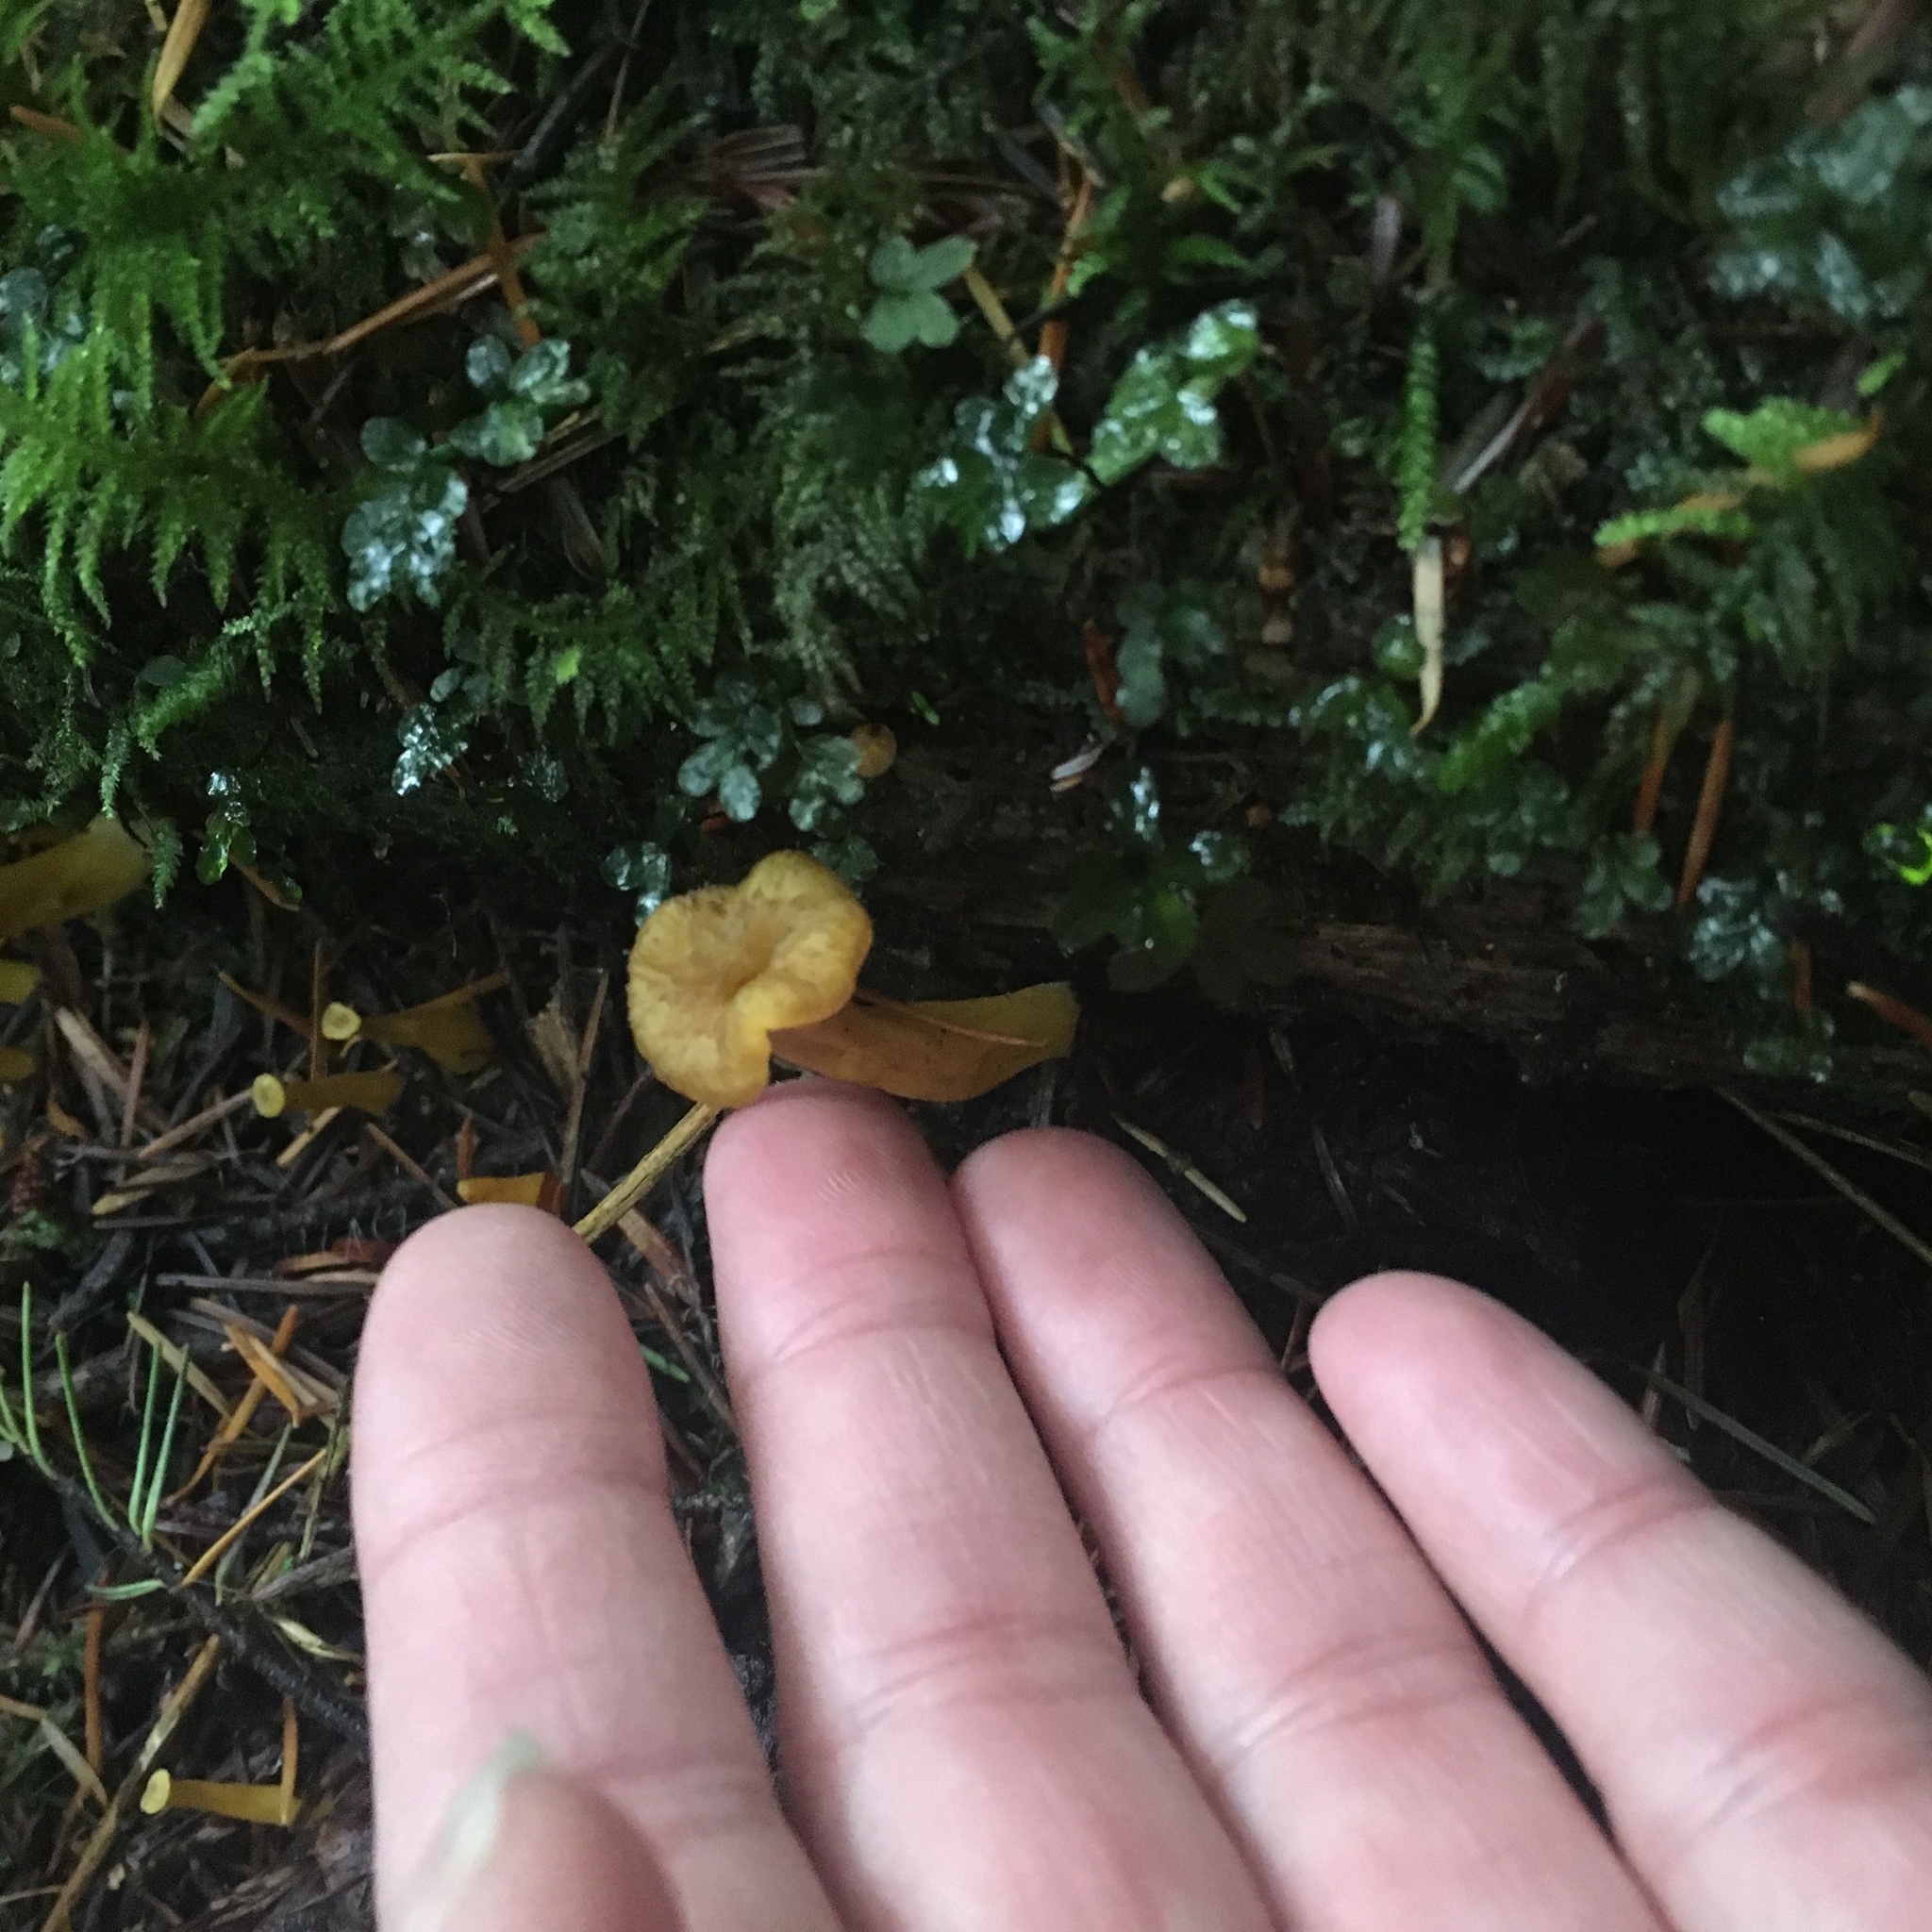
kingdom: Fungi
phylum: Basidiomycota
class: Agaricomycetes
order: Cantharellales
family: Hydnaceae
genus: Craterellus
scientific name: Craterellus tubaeformis
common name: Yellowfoot
